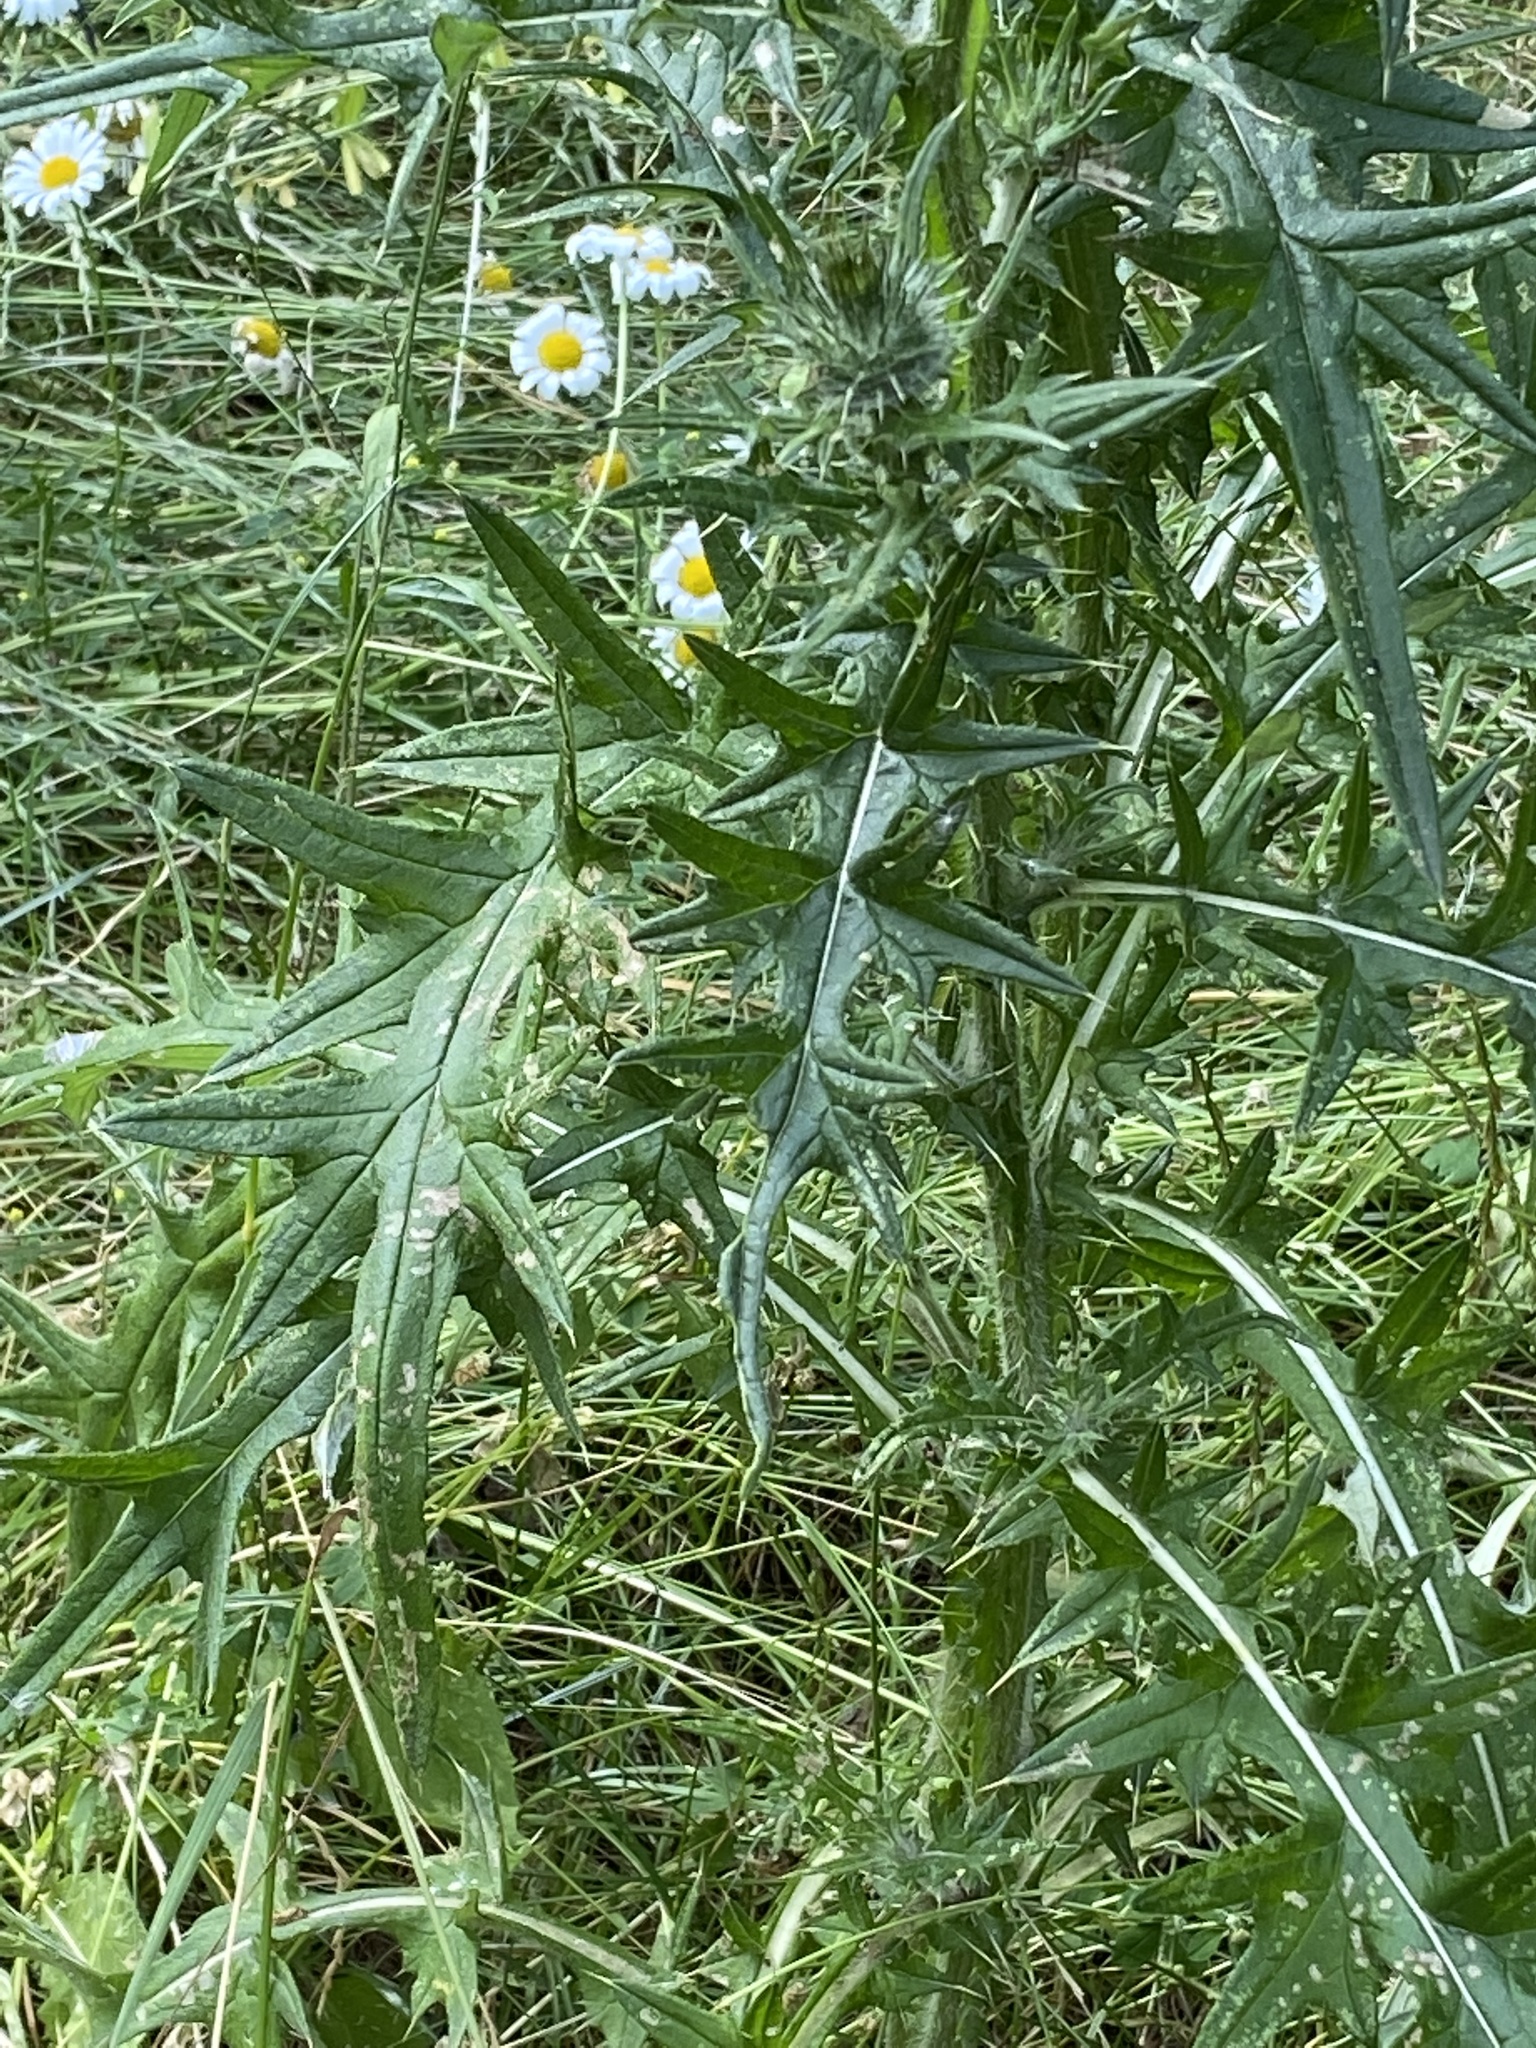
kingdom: Plantae
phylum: Tracheophyta
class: Magnoliopsida
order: Asterales
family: Asteraceae
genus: Cirsium
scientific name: Cirsium vulgare
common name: Bull thistle
